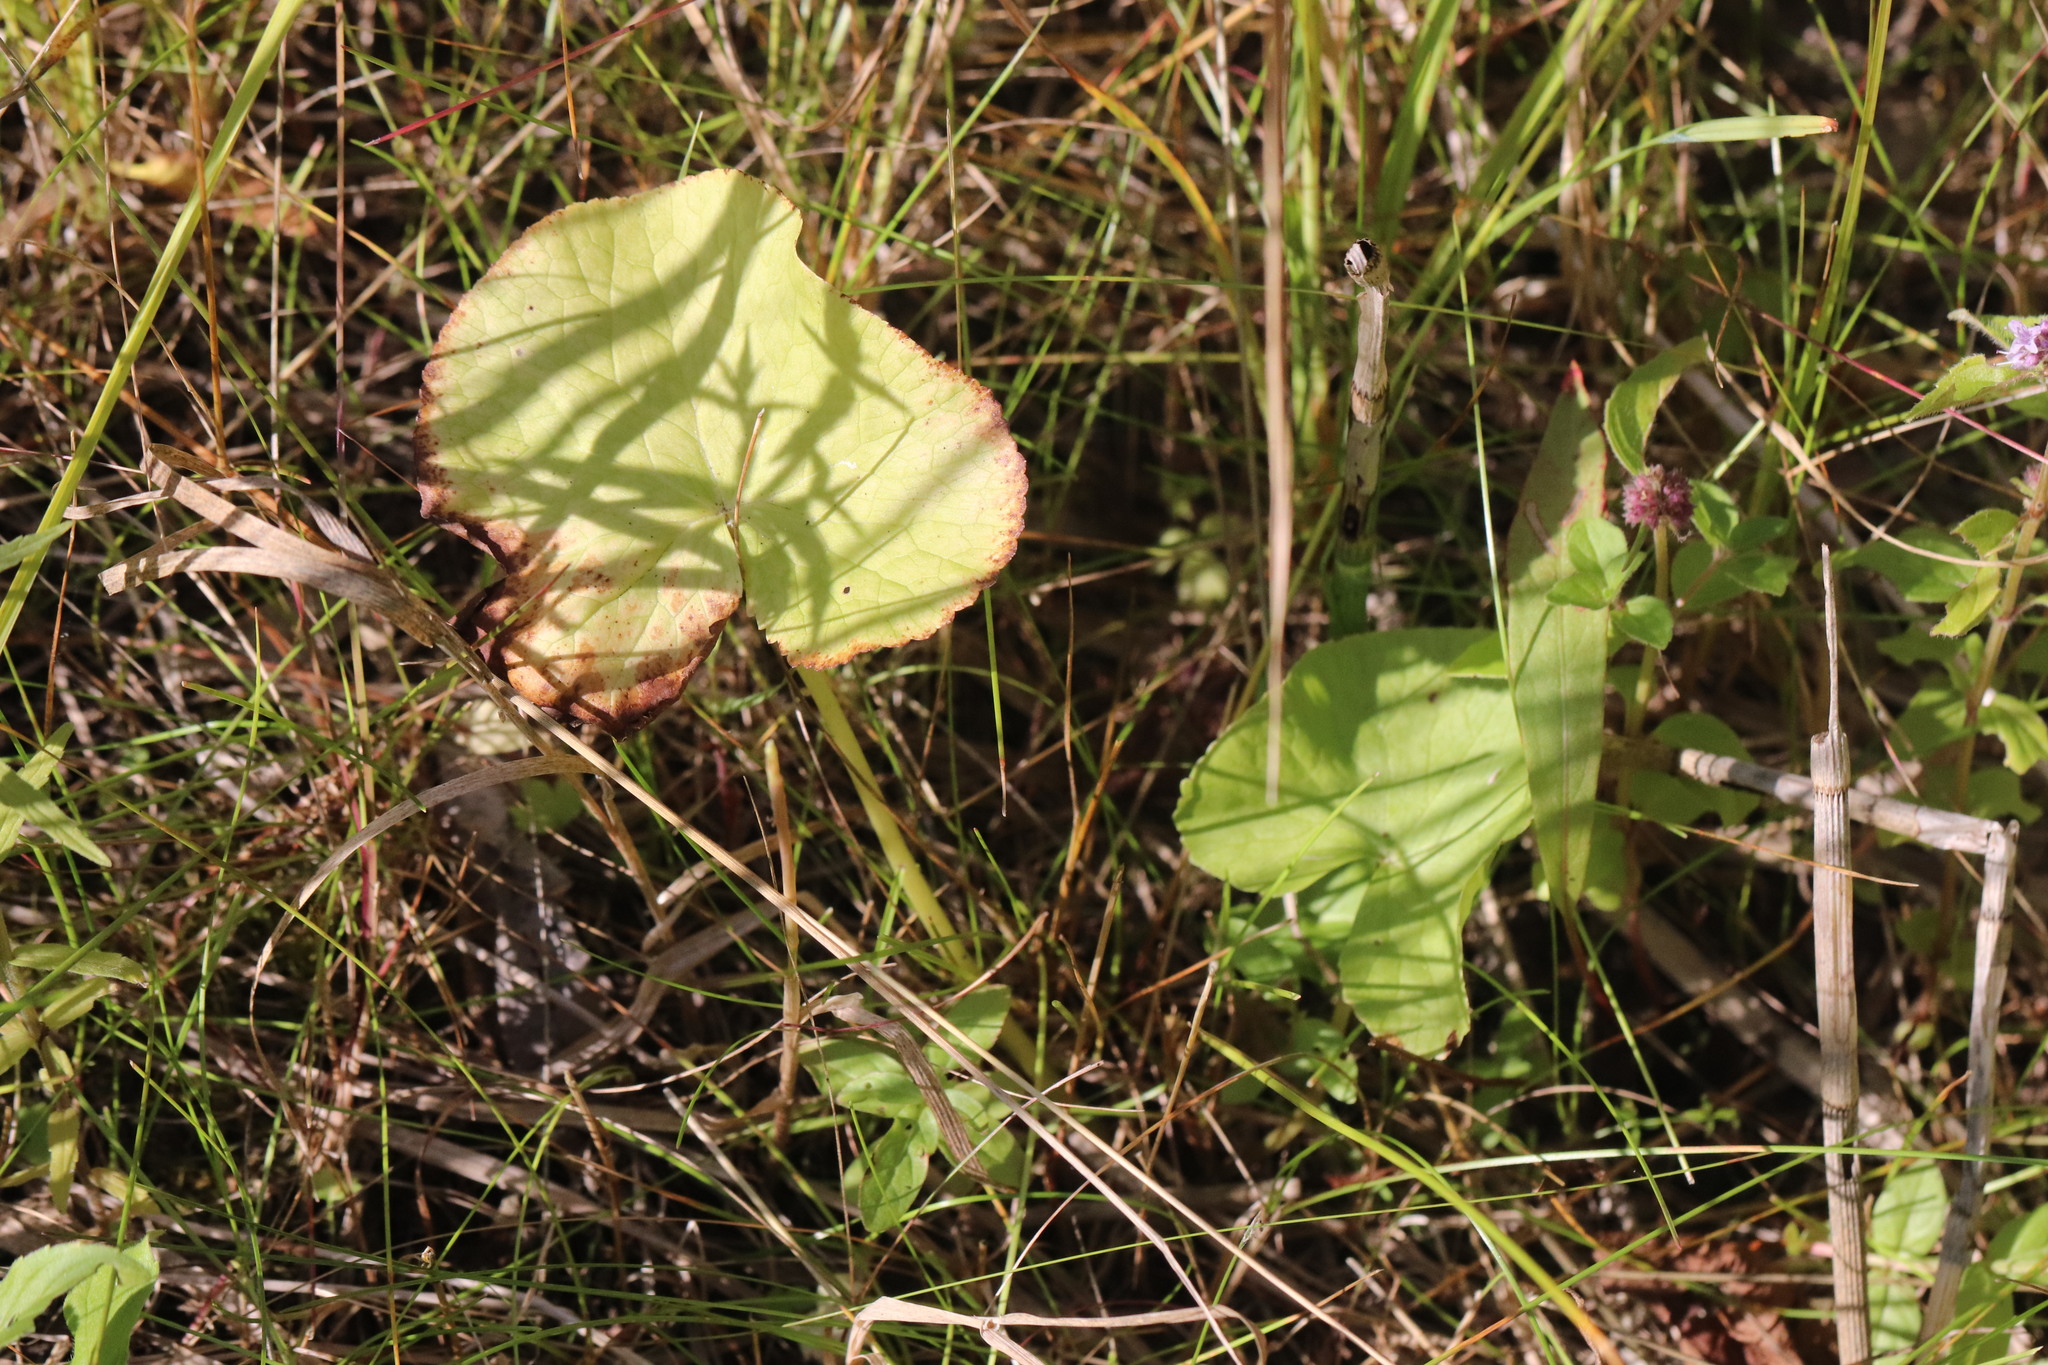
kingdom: Plantae
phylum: Tracheophyta
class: Magnoliopsida
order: Ranunculales
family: Ranunculaceae
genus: Caltha
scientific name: Caltha palustris
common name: Marsh marigold
